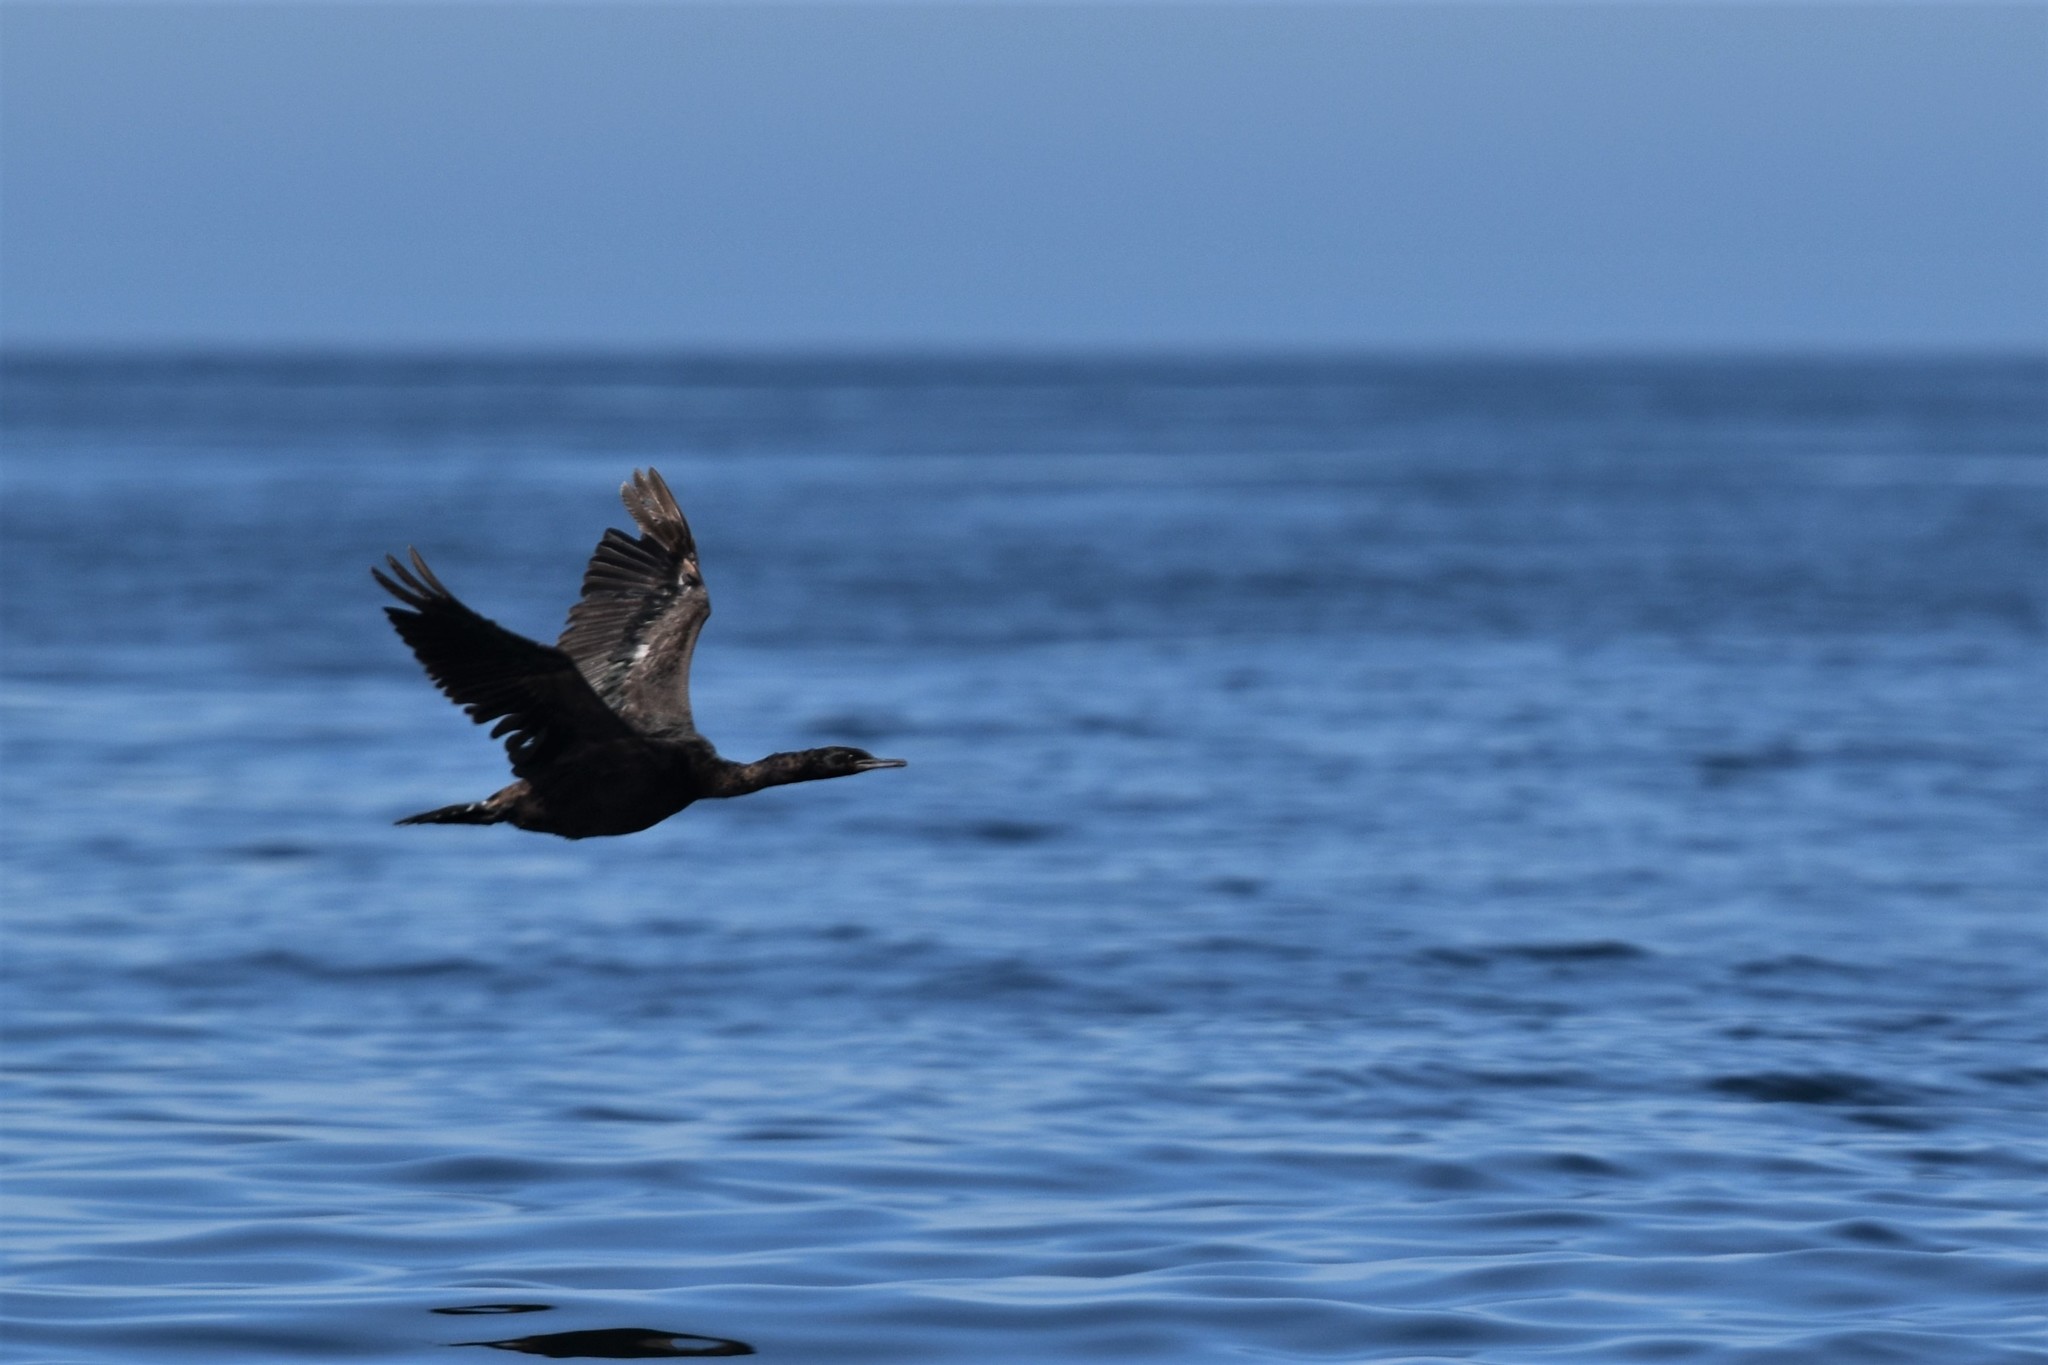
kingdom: Animalia
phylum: Chordata
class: Aves
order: Suliformes
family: Phalacrocoracidae
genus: Phalacrocorax
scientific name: Phalacrocorax pelagicus
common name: Pelagic cormorant
